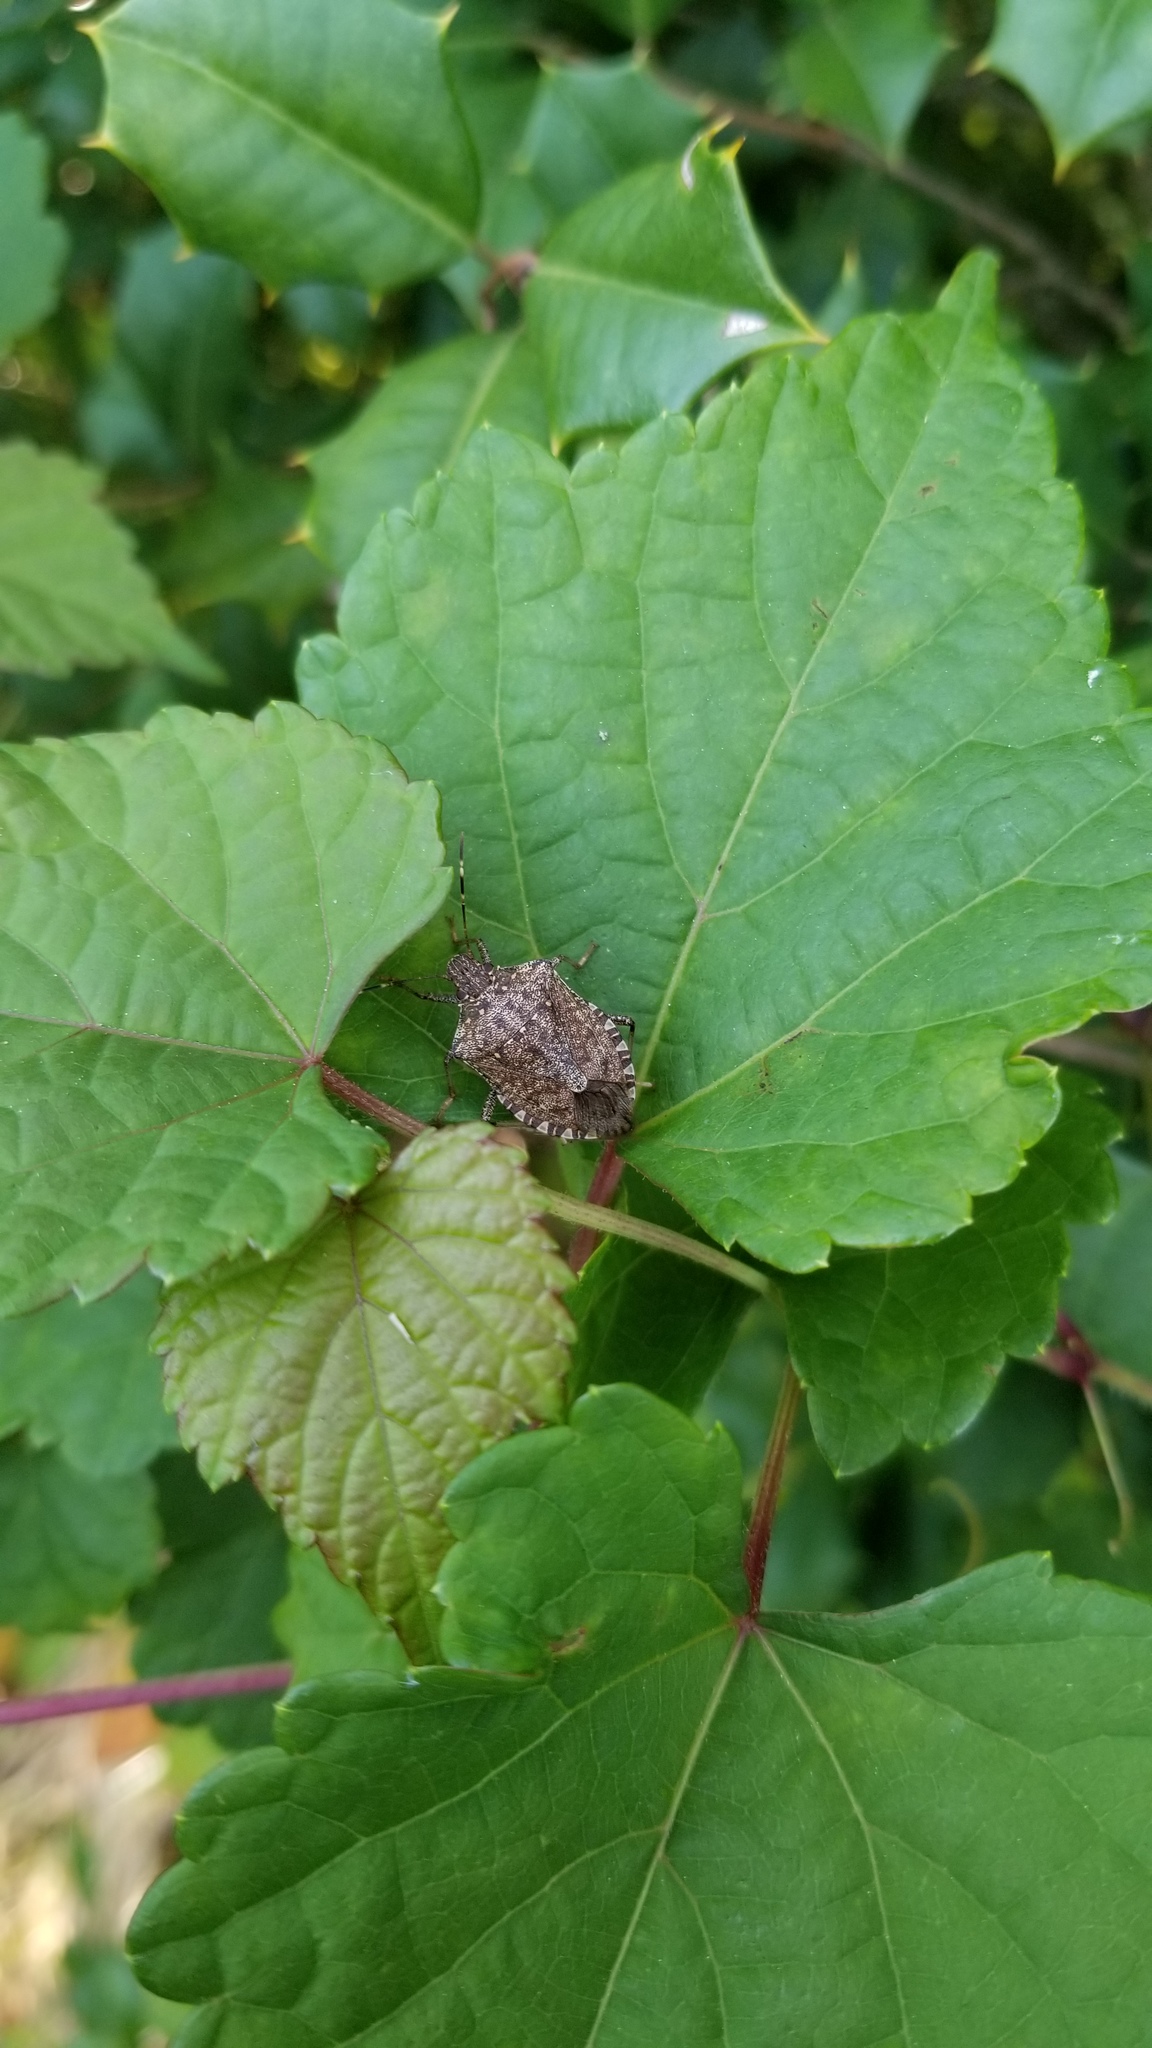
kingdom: Animalia
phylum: Arthropoda
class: Insecta
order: Hemiptera
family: Pentatomidae
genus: Halyomorpha
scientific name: Halyomorpha halys
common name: Brown marmorated stink bug
